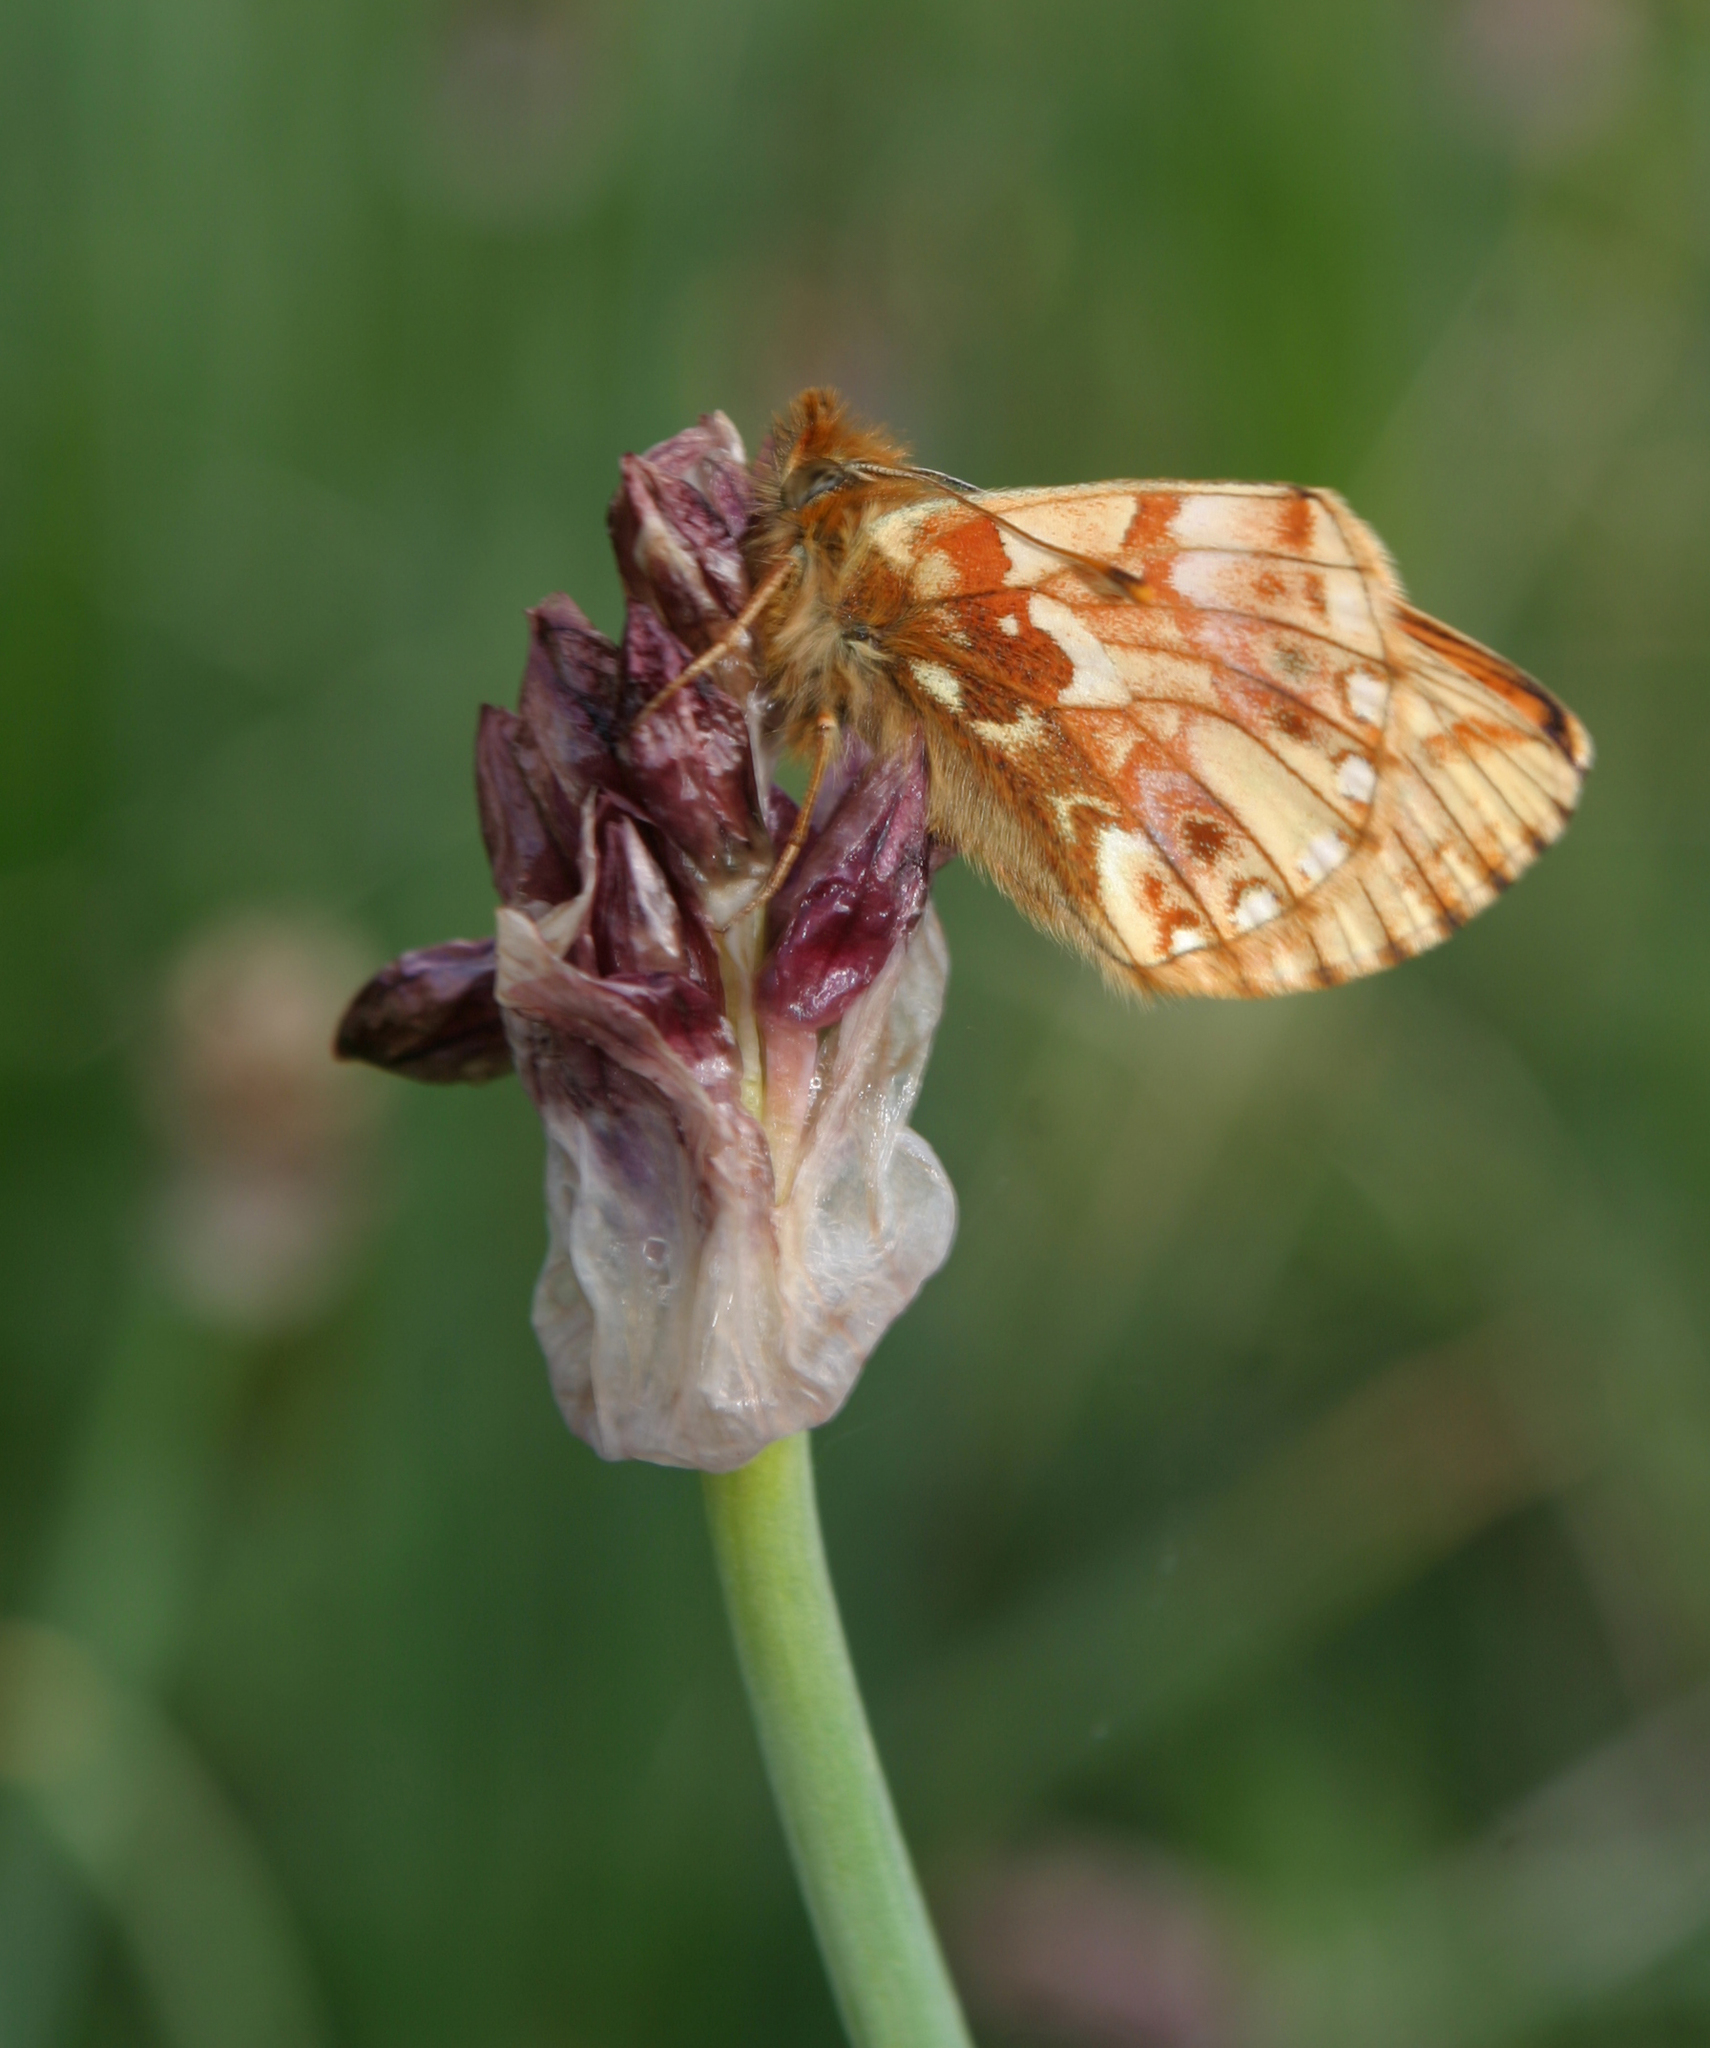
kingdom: Animalia
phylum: Arthropoda
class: Insecta
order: Lepidoptera
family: Nymphalidae
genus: Boloria
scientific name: Boloria sipora
